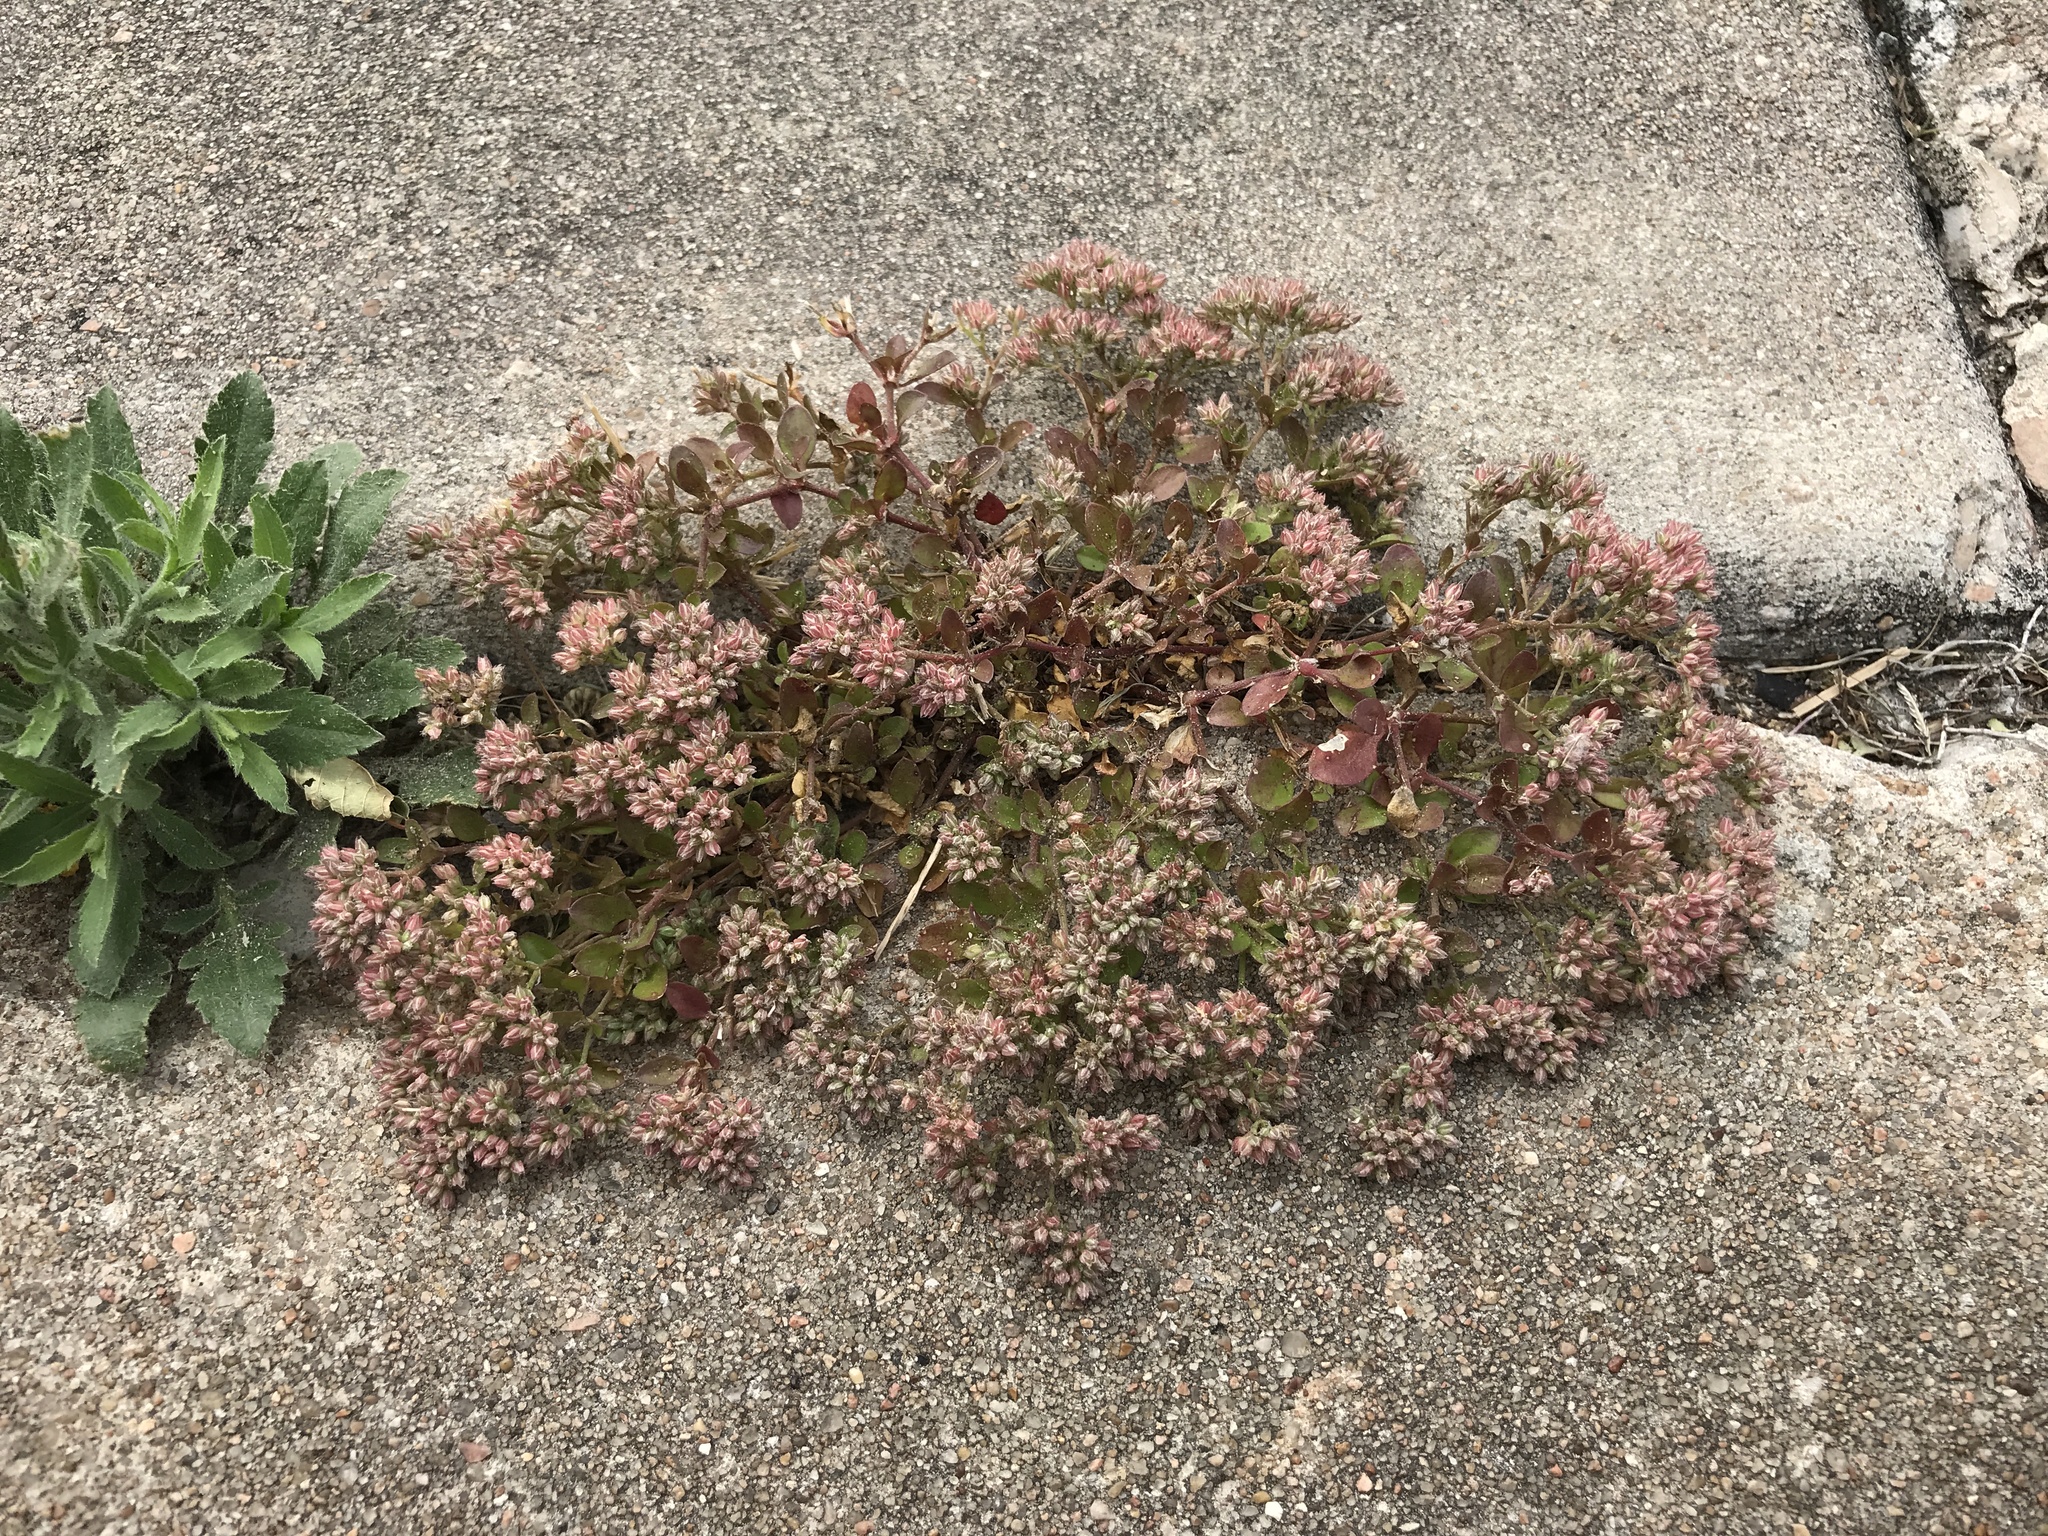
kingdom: Plantae
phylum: Tracheophyta
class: Magnoliopsida
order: Caryophyllales
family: Caryophyllaceae
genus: Polycarpon
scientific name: Polycarpon tetraphyllum
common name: Four-leaved all-seed
